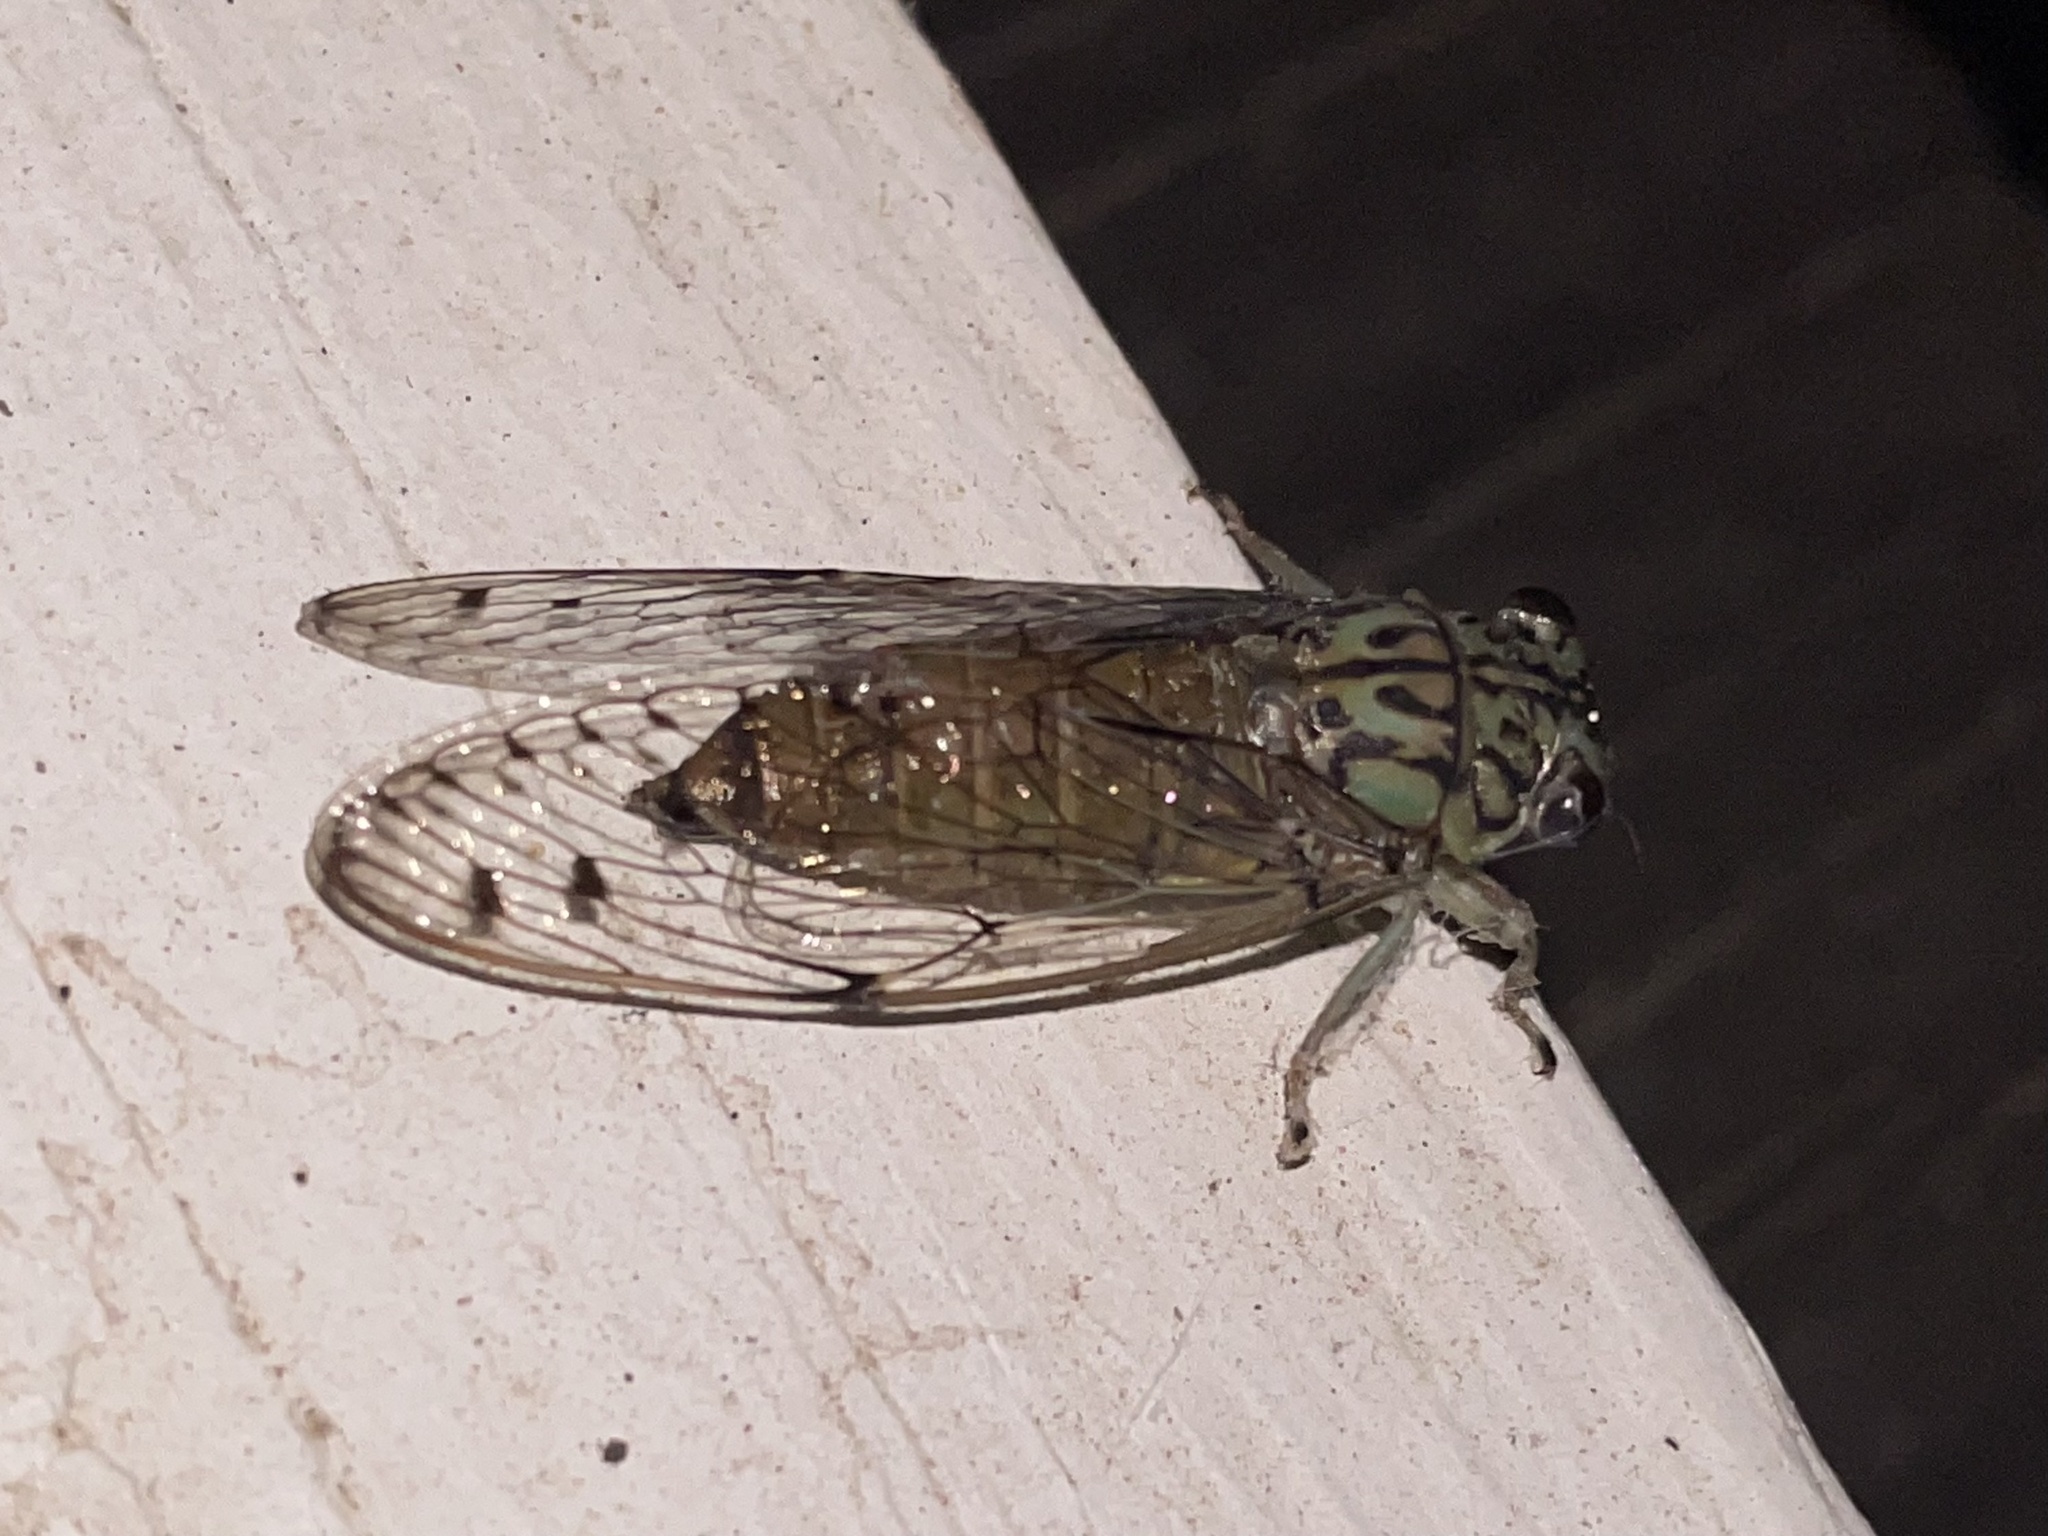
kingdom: Animalia
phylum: Arthropoda
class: Insecta
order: Hemiptera
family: Cicadidae
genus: Neocicada
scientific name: Neocicada hieroglyphica
